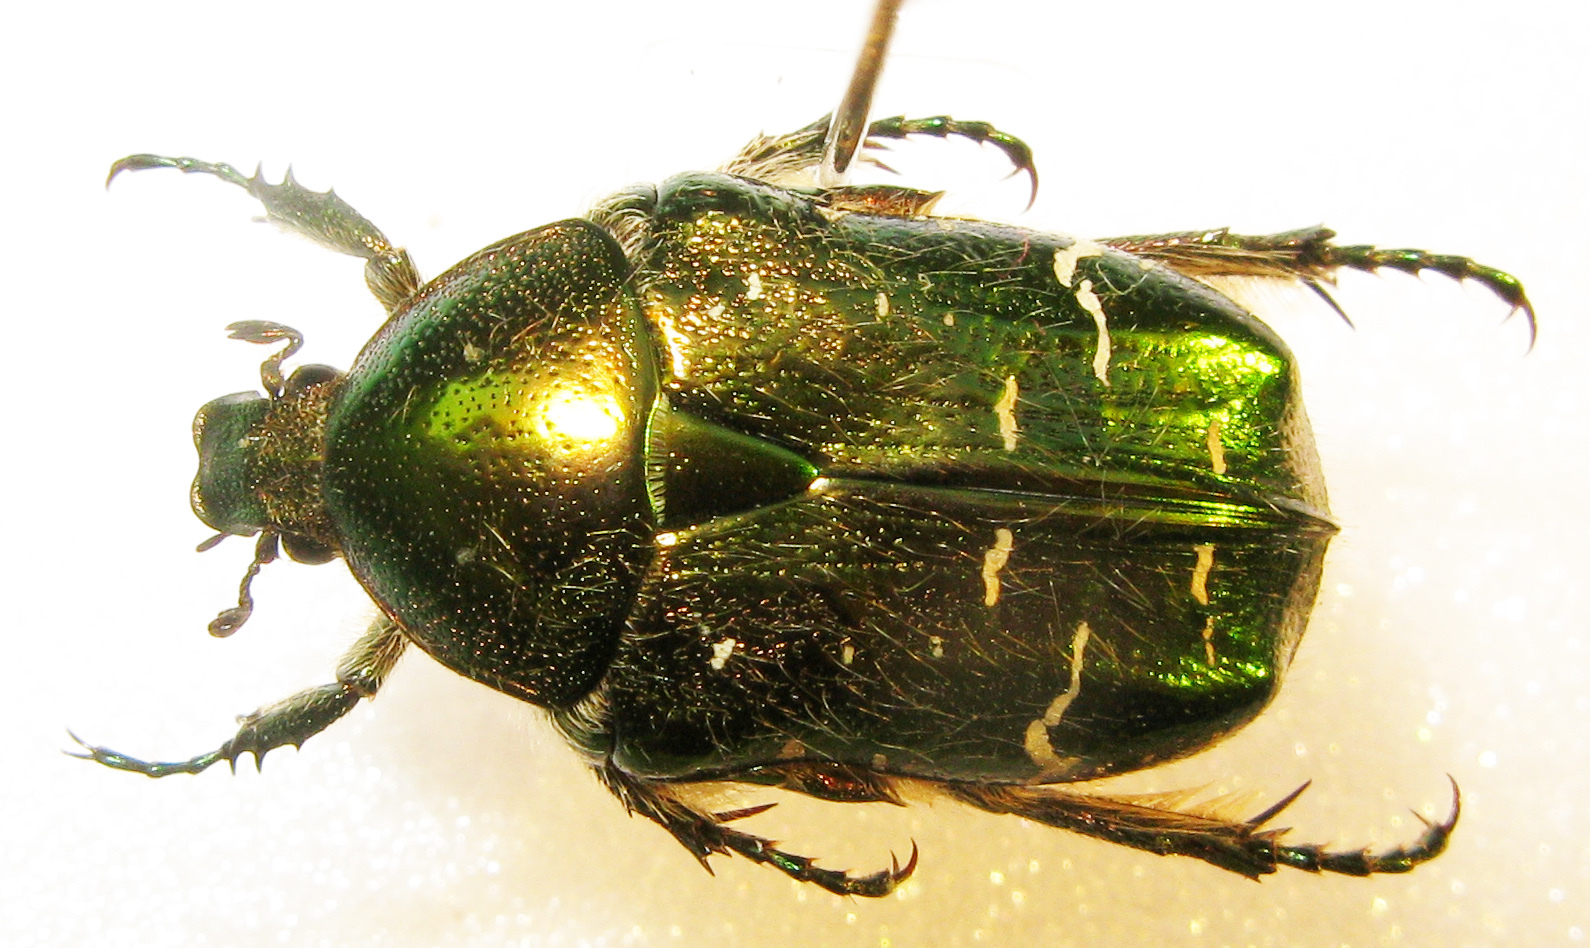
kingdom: Animalia
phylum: Arthropoda
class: Insecta
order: Coleoptera
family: Scarabaeidae
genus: Cetonia
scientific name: Cetonia aurata
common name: Rose chafer
